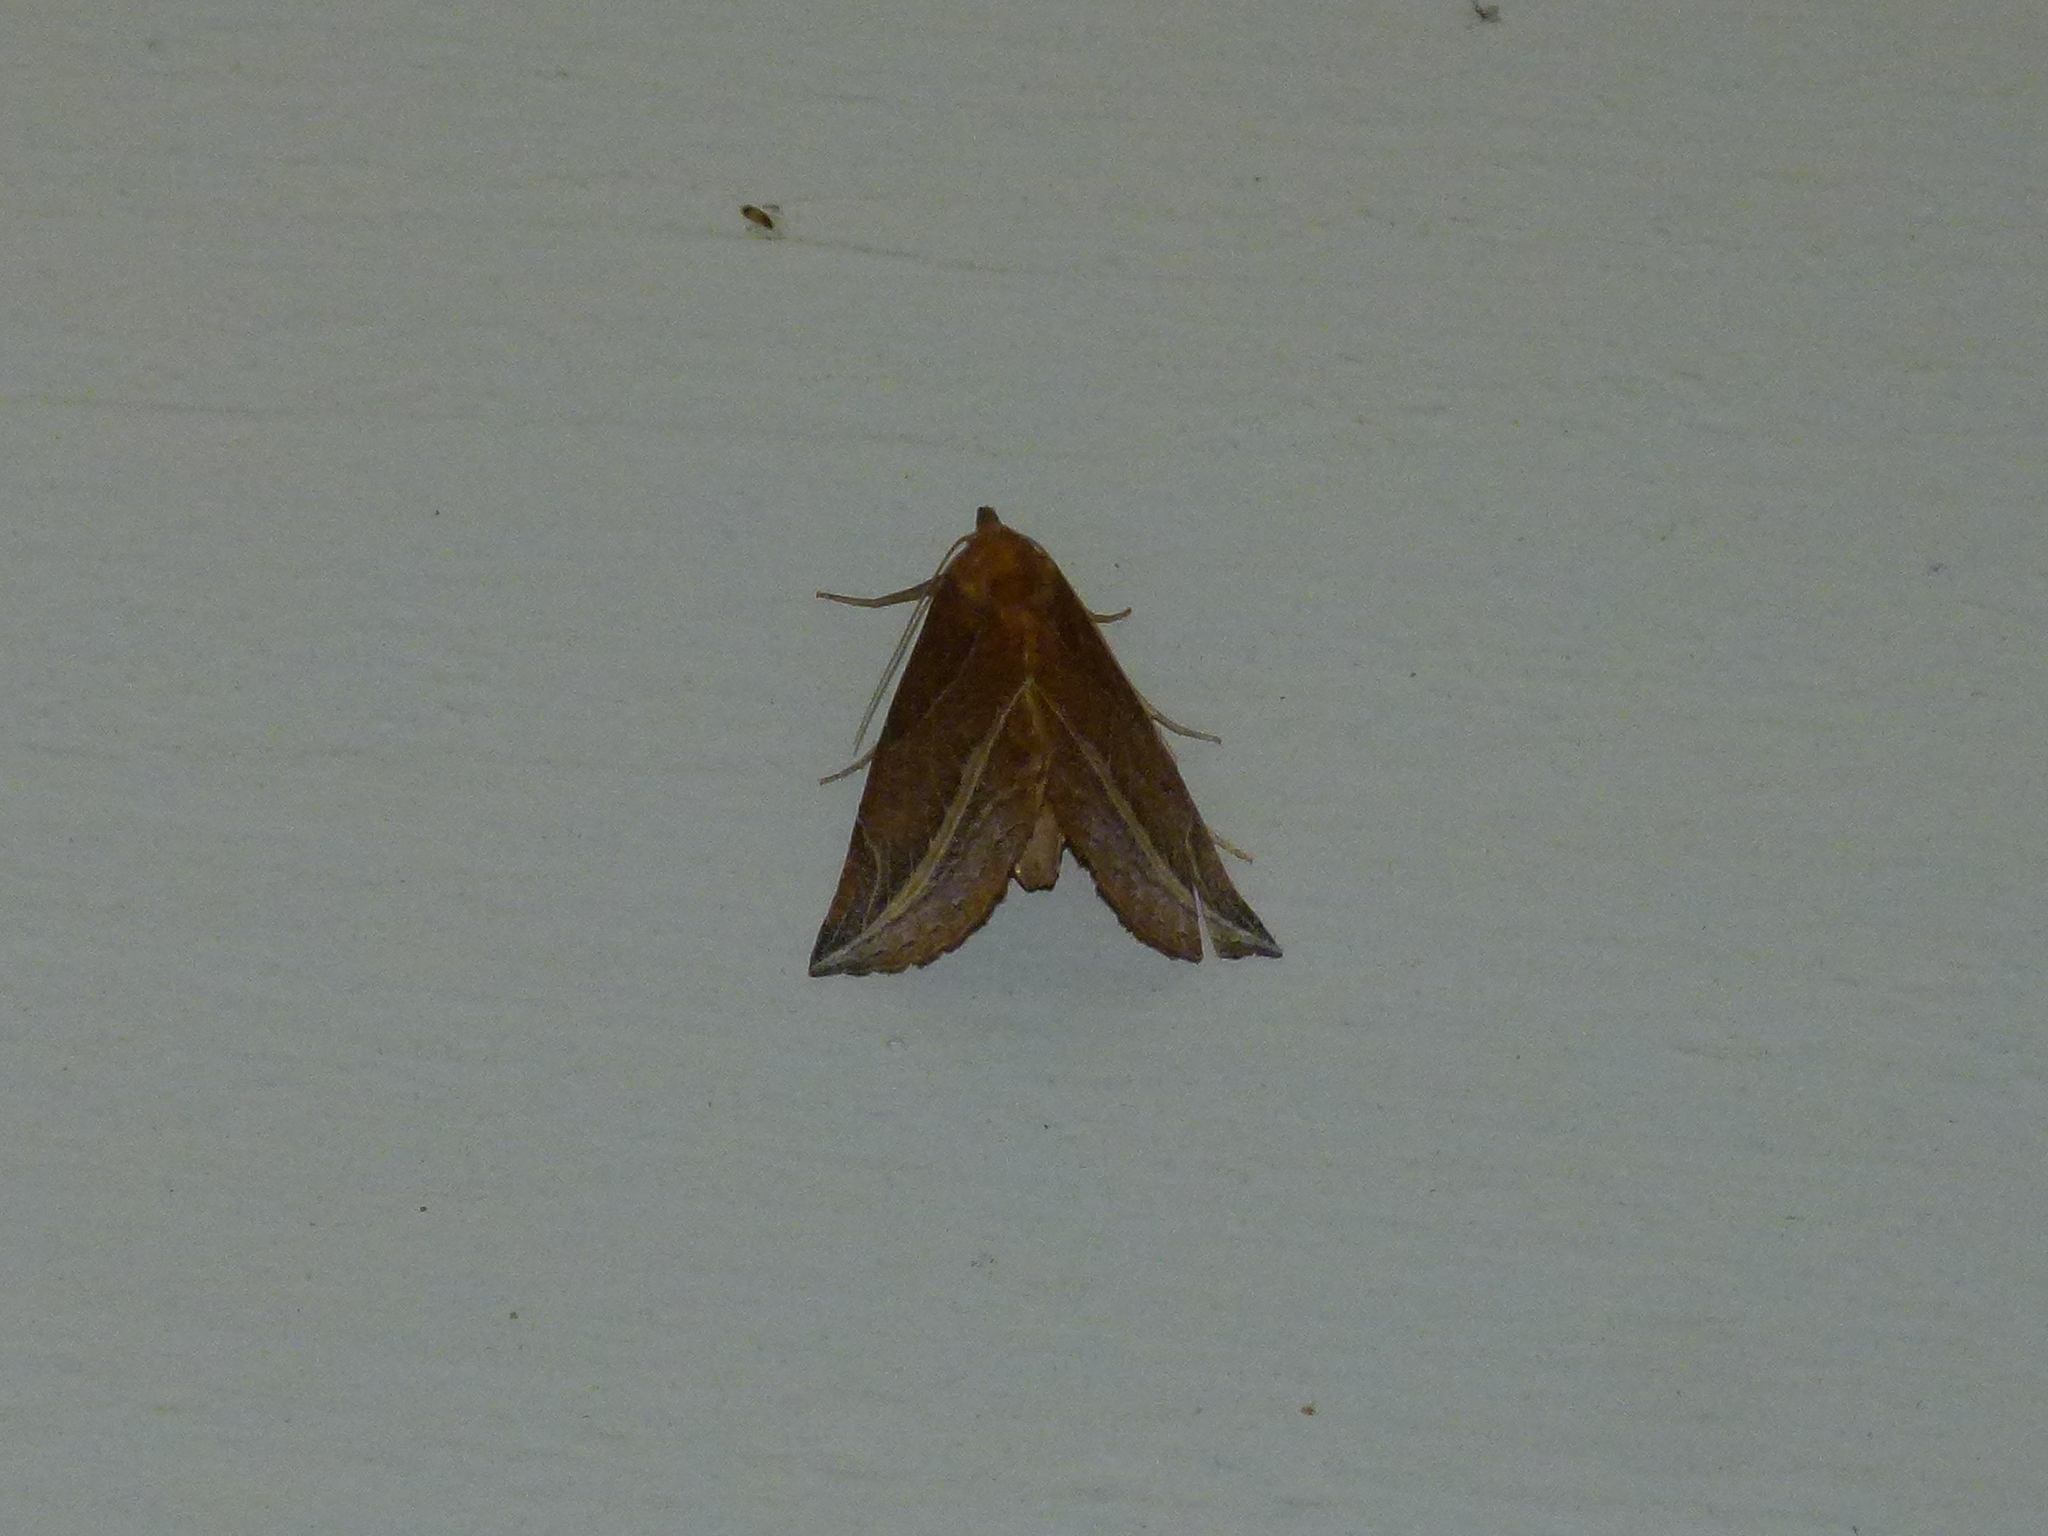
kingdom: Animalia
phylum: Arthropoda
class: Insecta
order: Lepidoptera
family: Erebidae
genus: Phyprosopus
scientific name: Phyprosopus callitrichoides
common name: Curved-lined owlet
